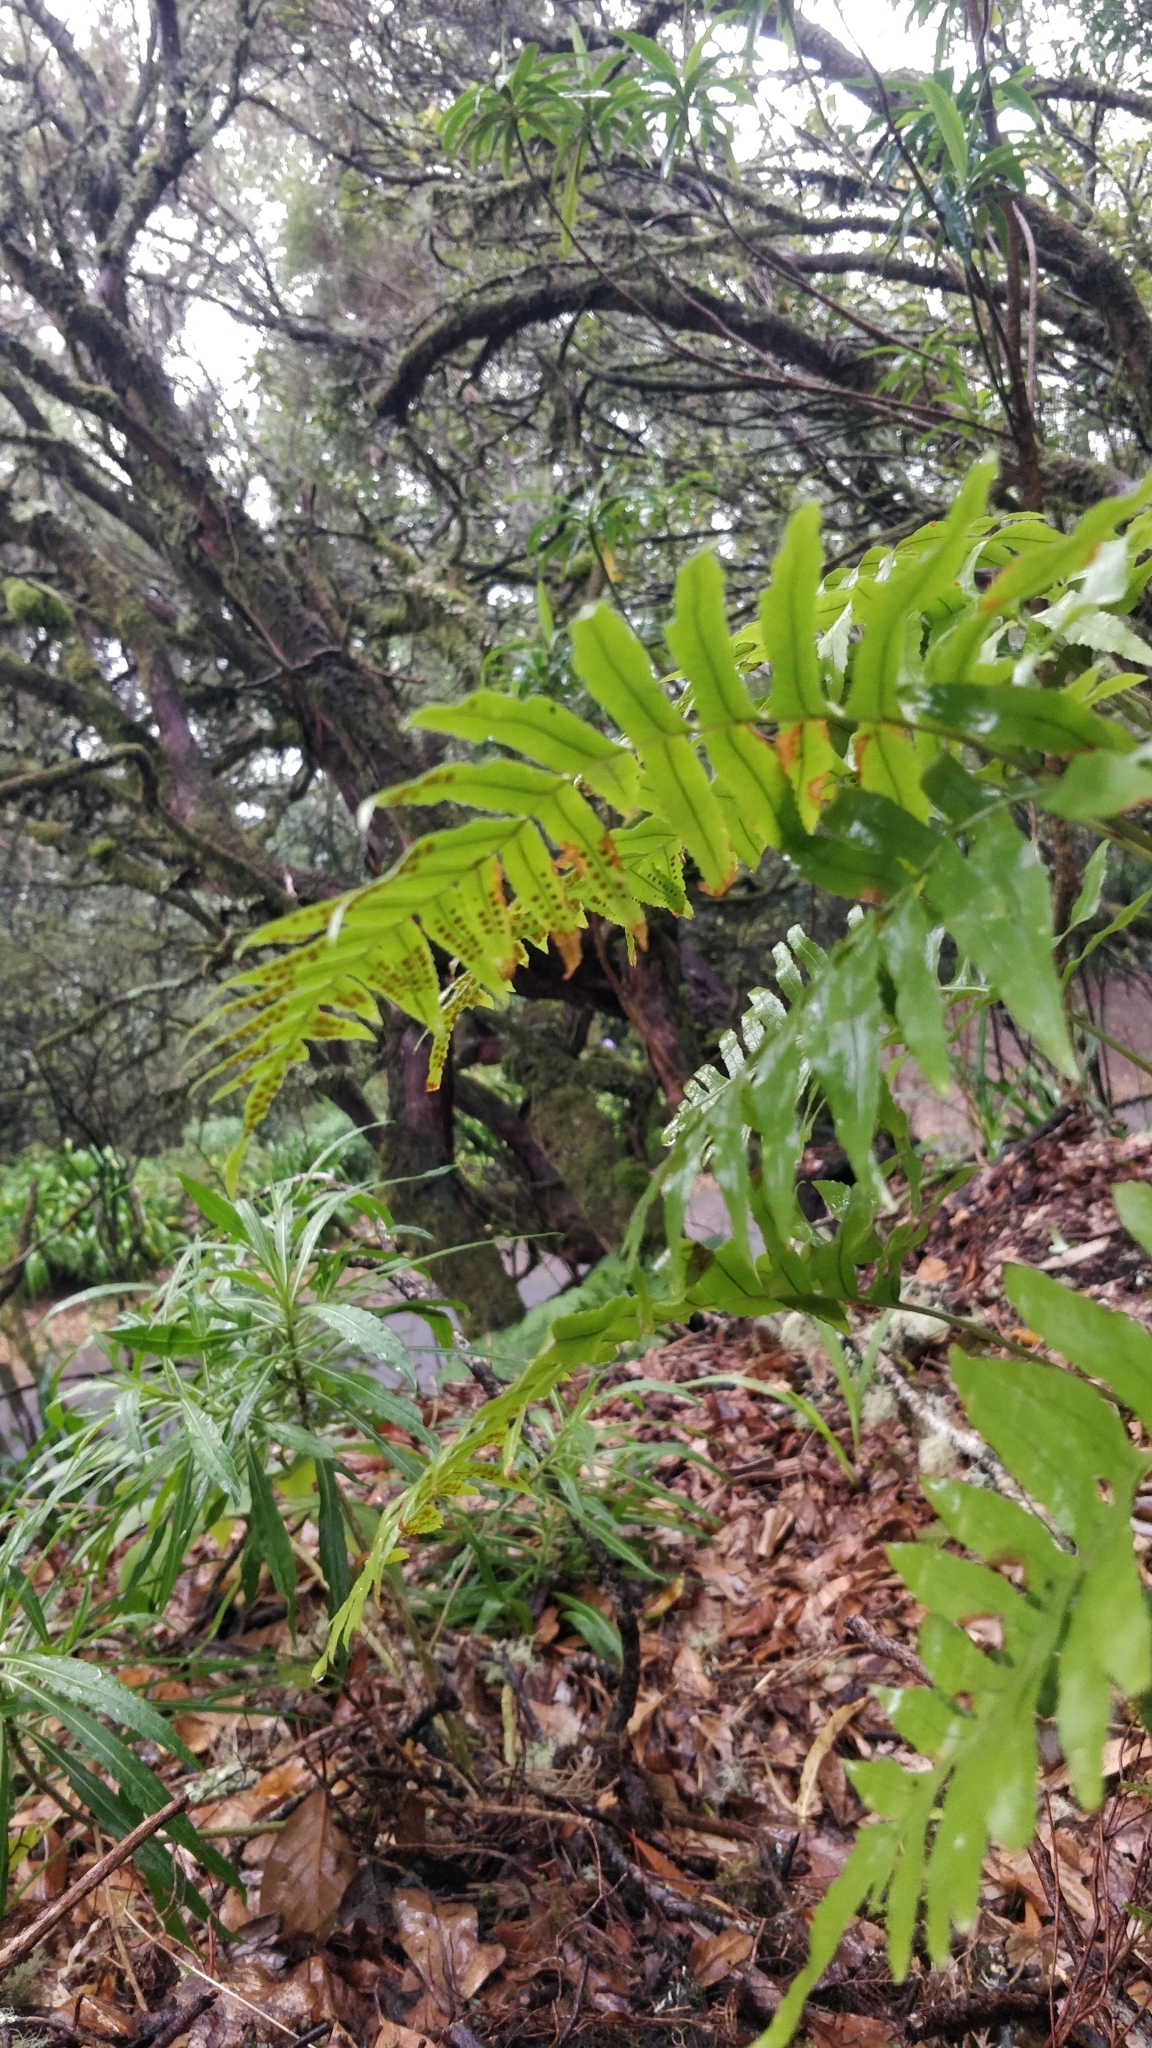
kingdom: Plantae
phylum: Tracheophyta
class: Polypodiopsida
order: Polypodiales
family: Polypodiaceae
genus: Polypodium
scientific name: Polypodium macaronesicum
